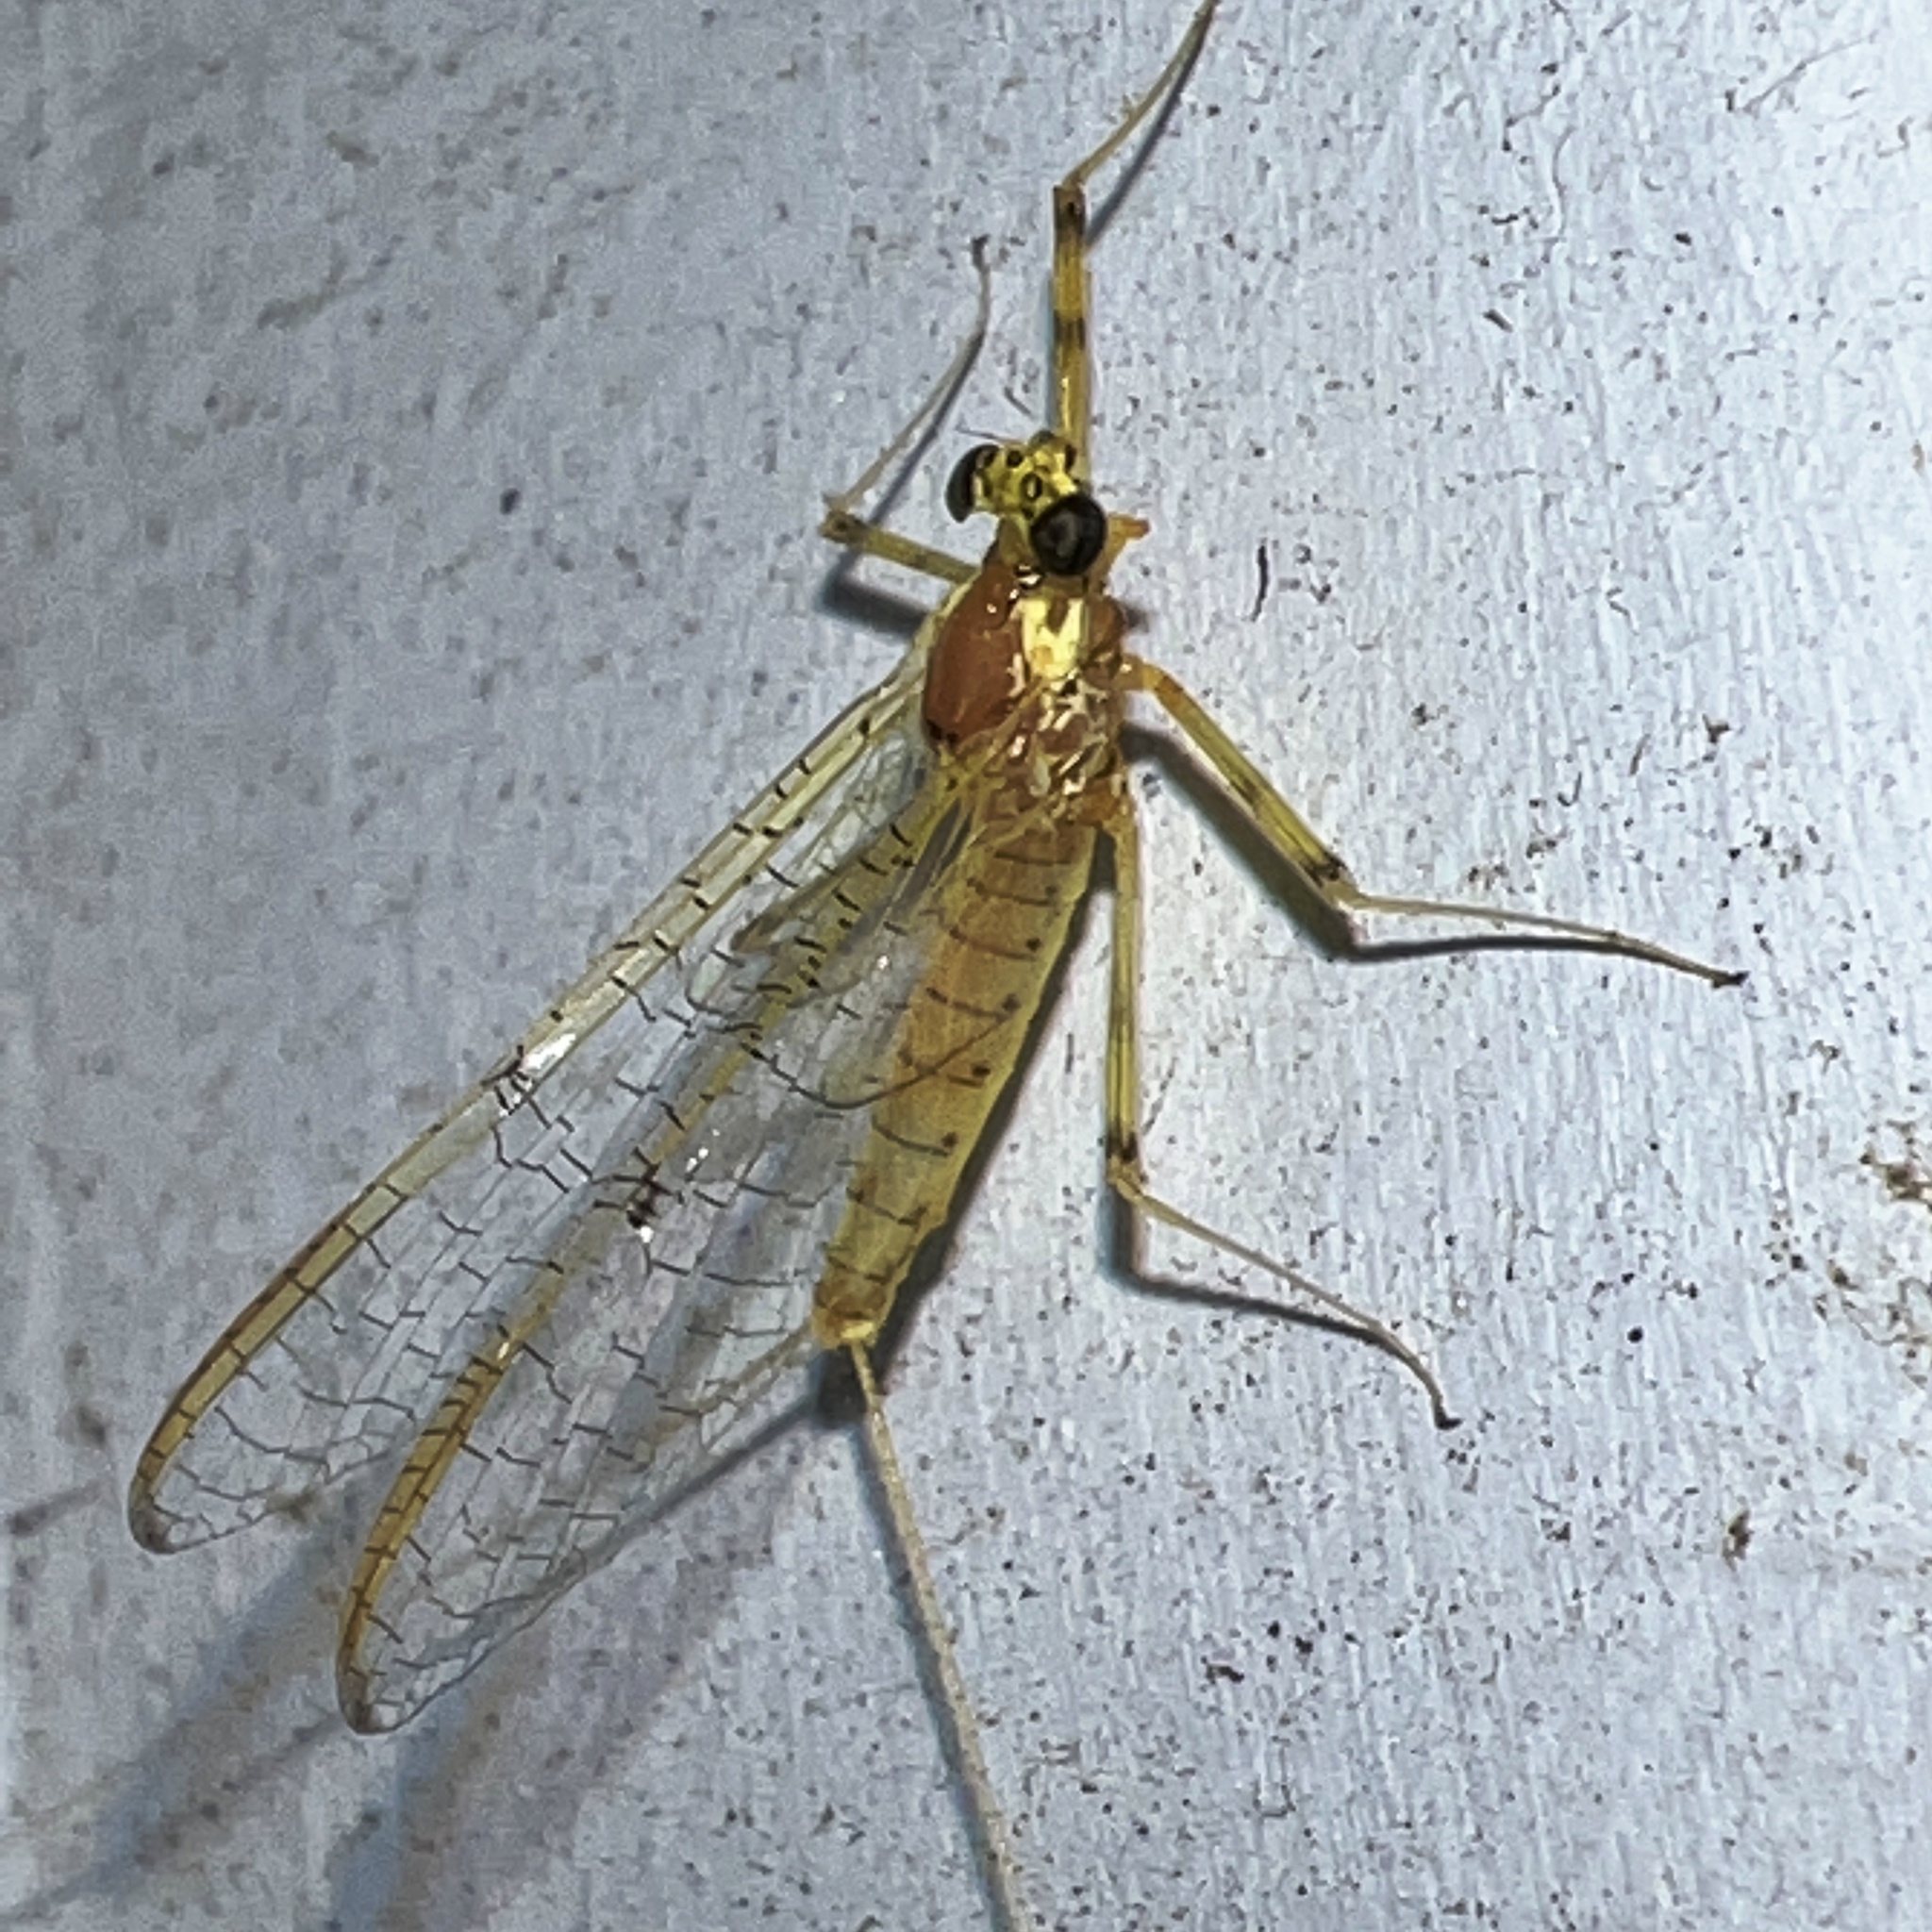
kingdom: Animalia
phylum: Arthropoda
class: Insecta
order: Ephemeroptera
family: Heptageniidae
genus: Stenacron
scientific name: Stenacron interpunctatum
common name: Orange cahill
